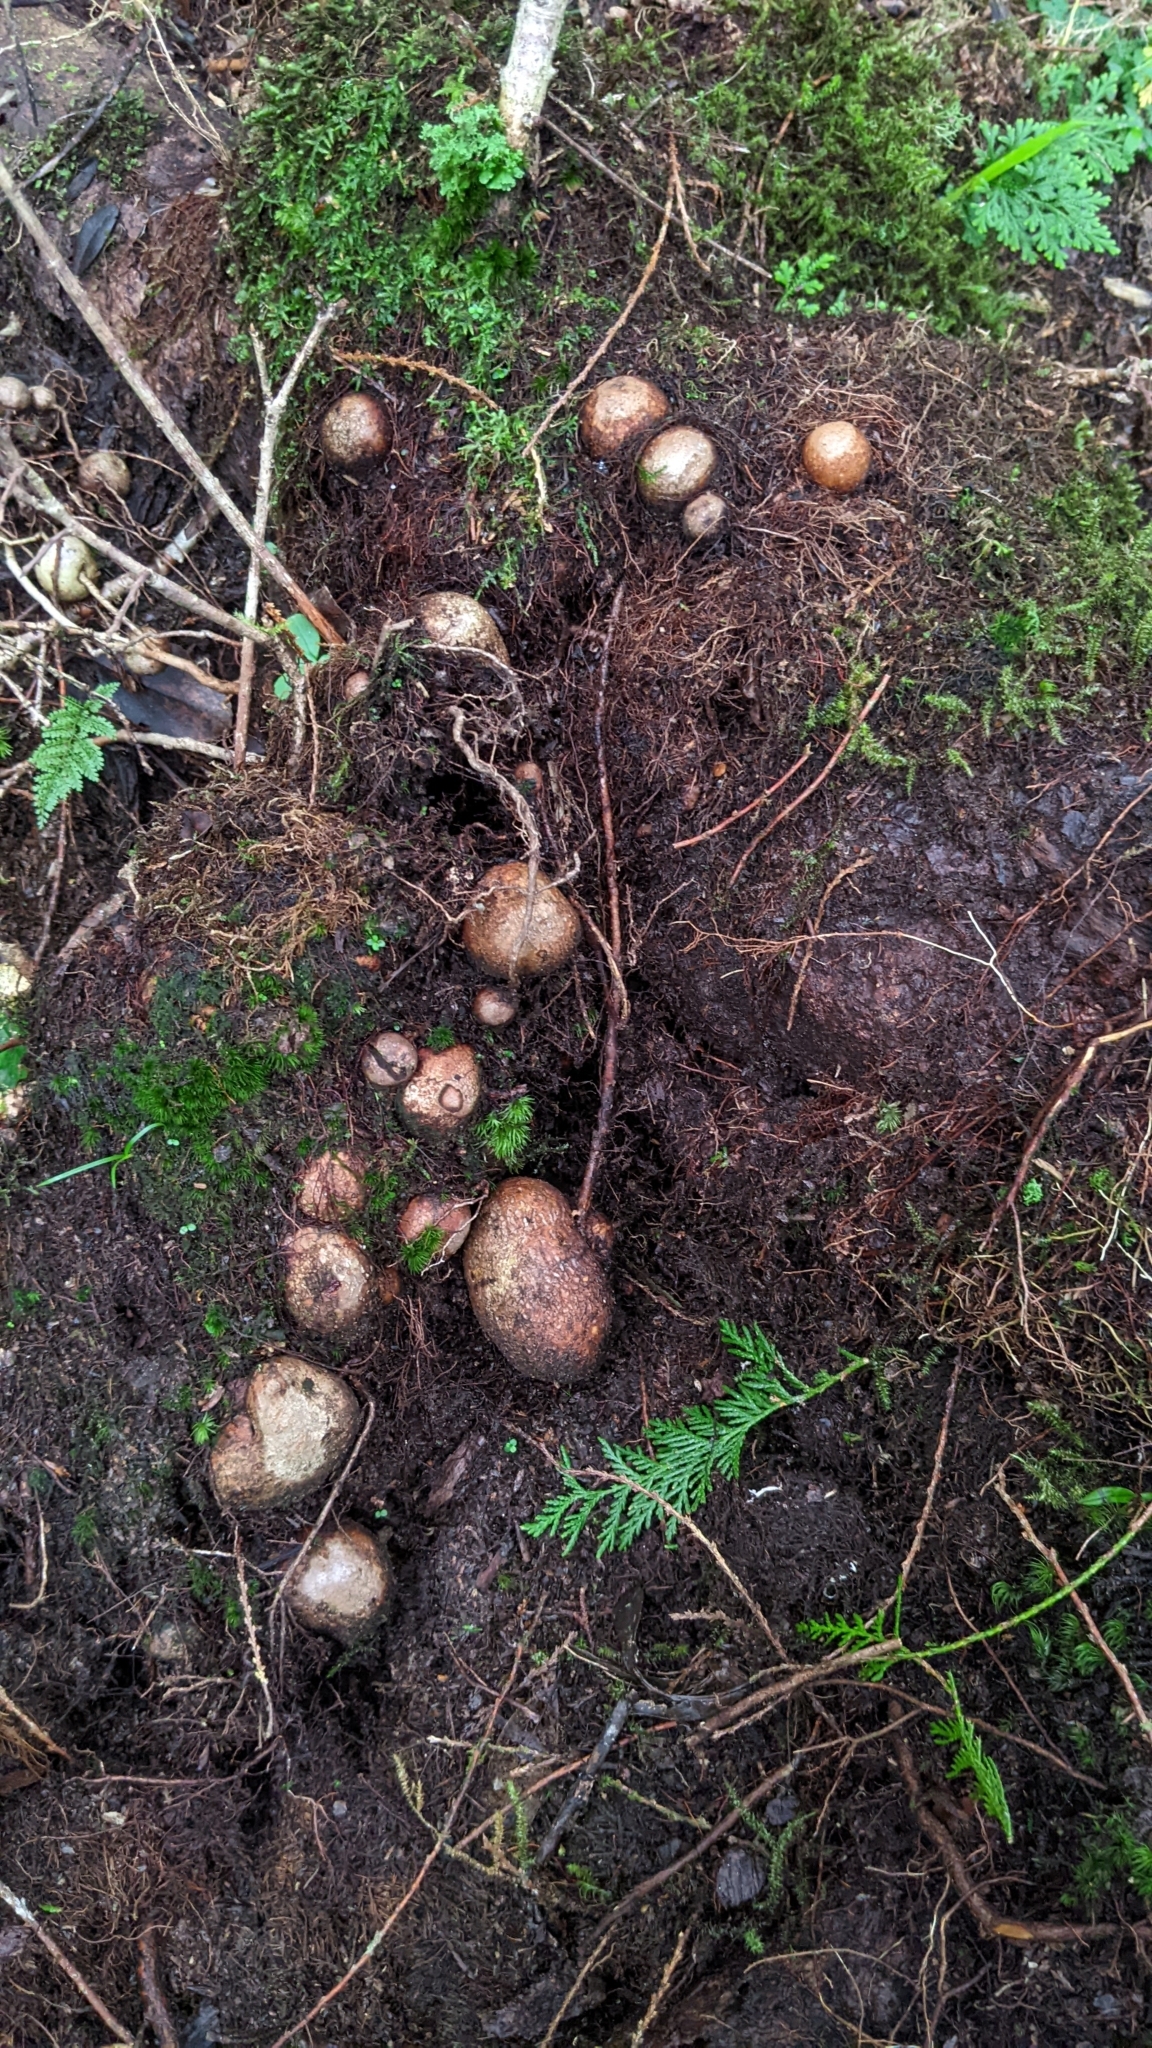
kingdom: Plantae
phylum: Tracheophyta
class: Magnoliopsida
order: Ericales
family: Ericaceae
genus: Vaccinium
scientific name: Vaccinium emarginatum
